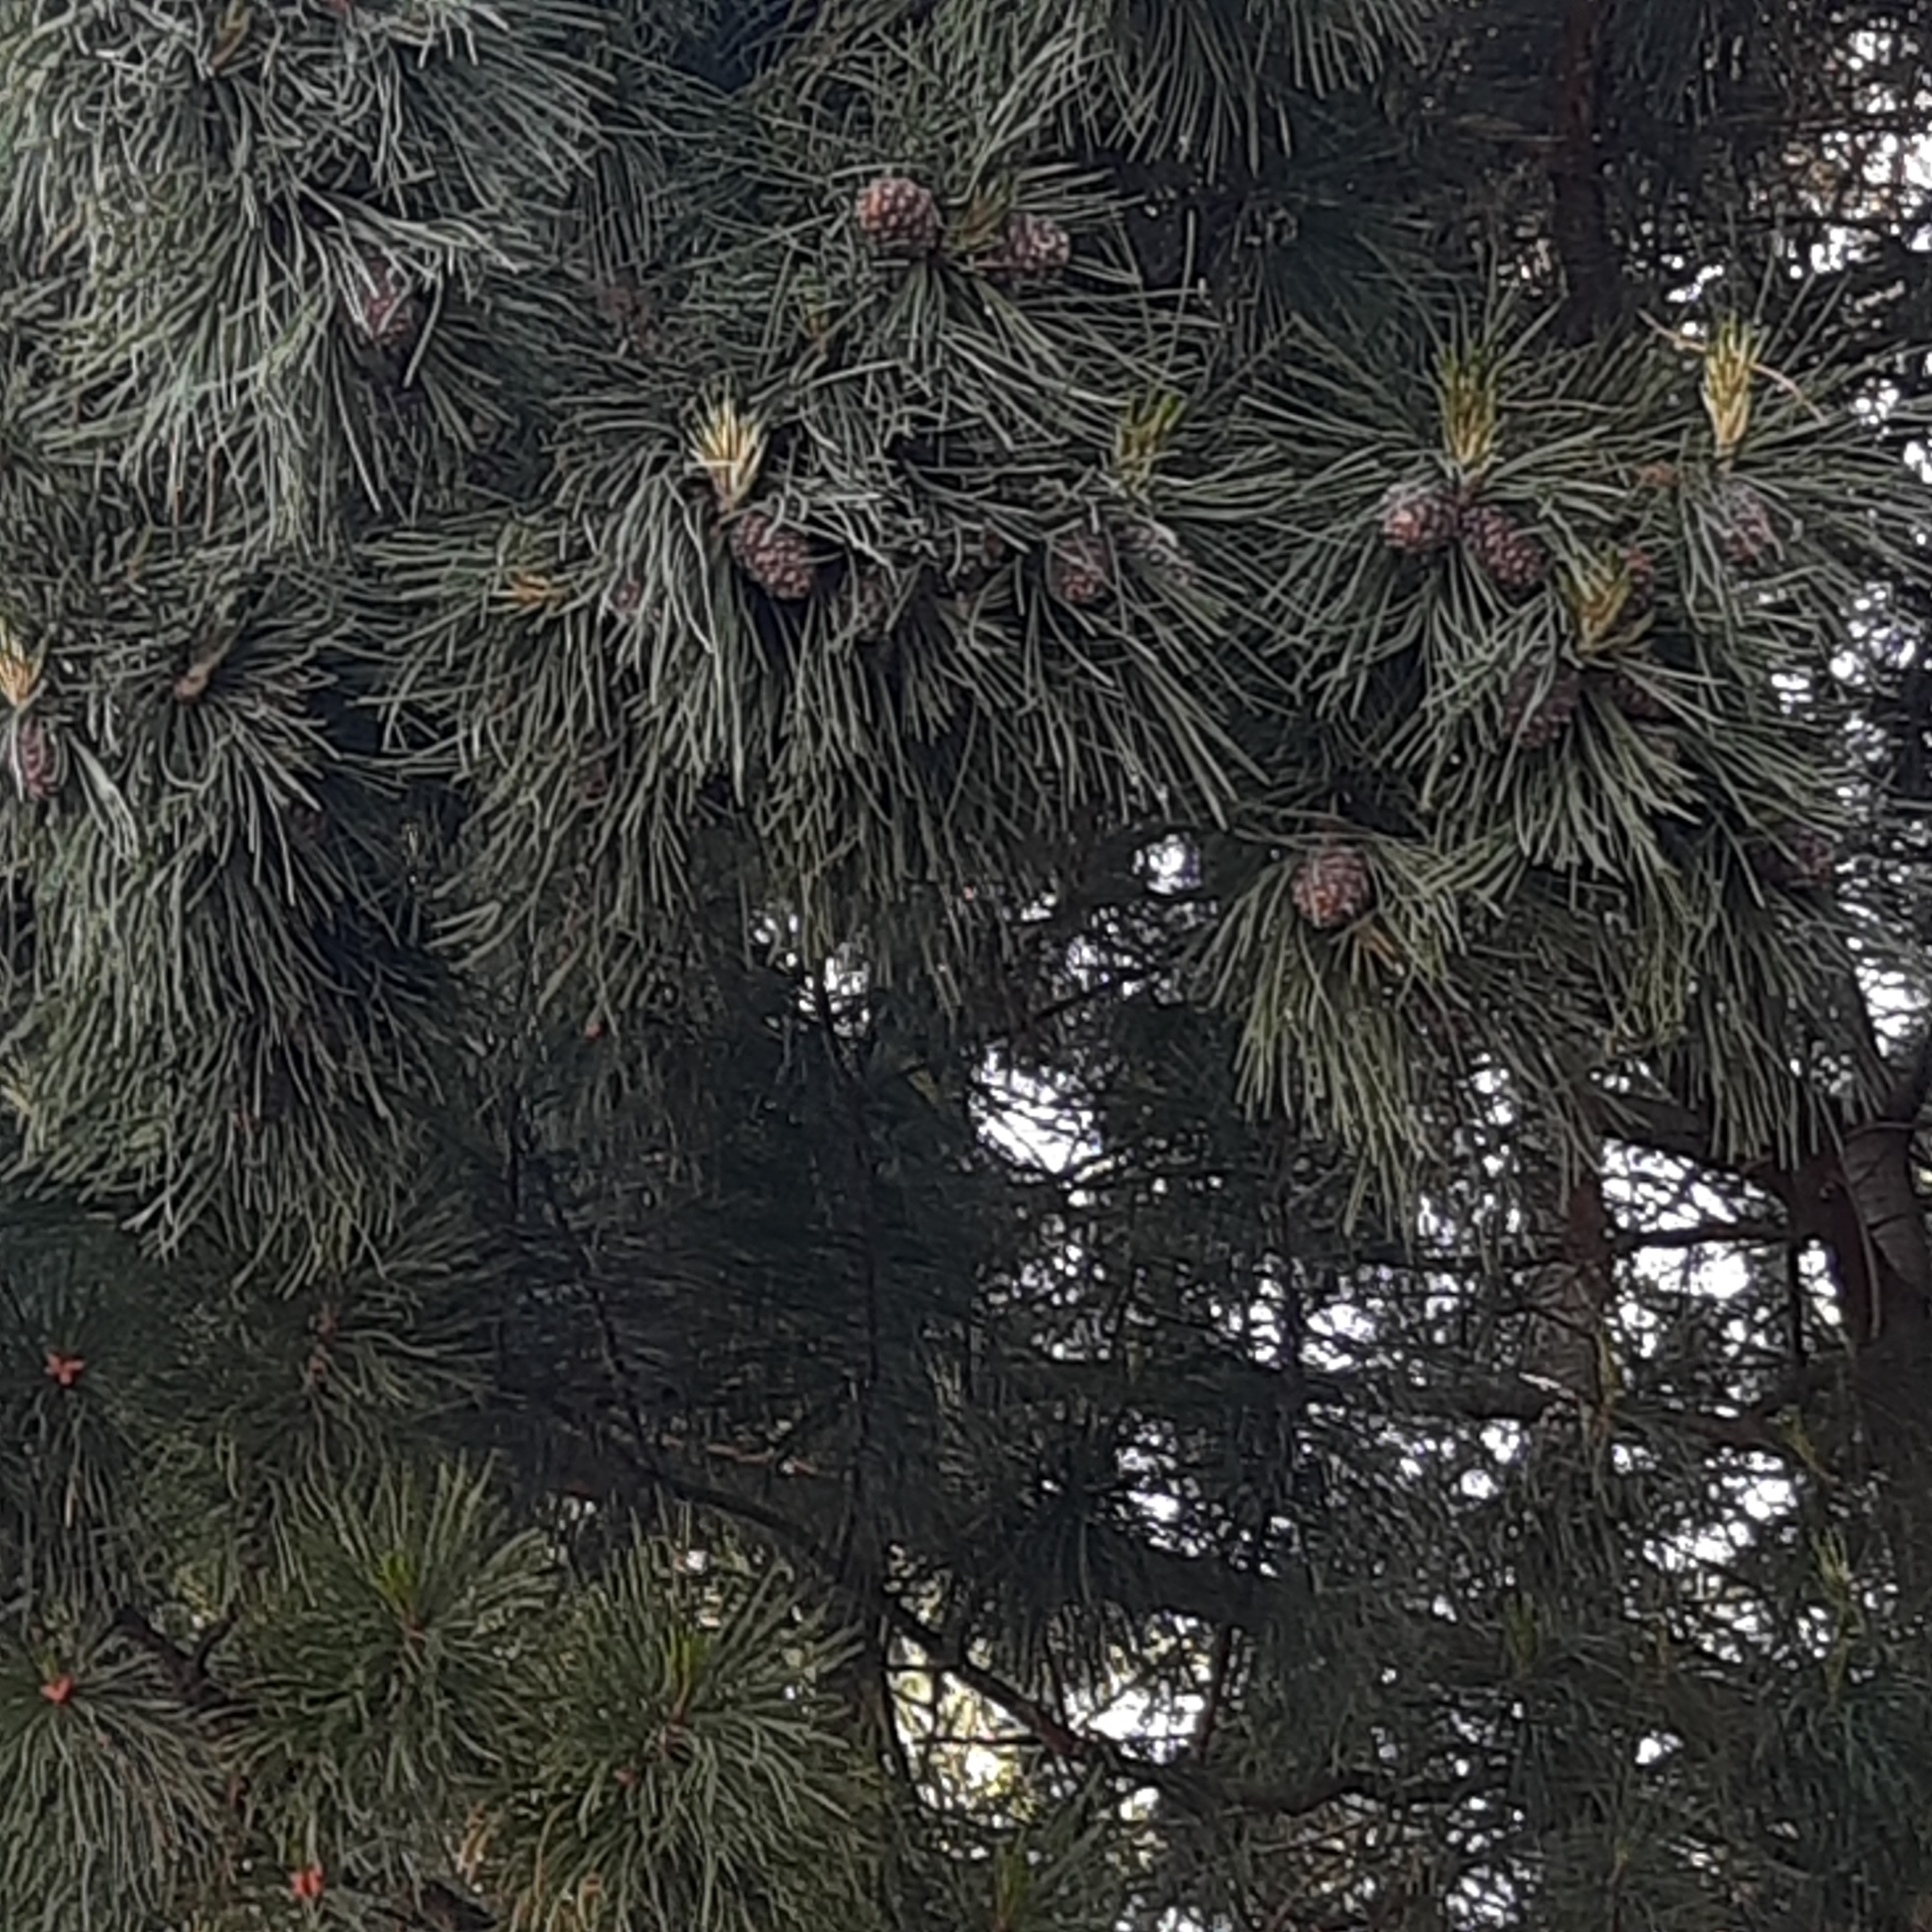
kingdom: Plantae
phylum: Tracheophyta
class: Pinopsida
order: Pinales
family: Pinaceae
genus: Pinus
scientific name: Pinus sibirica
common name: Siberian pine
